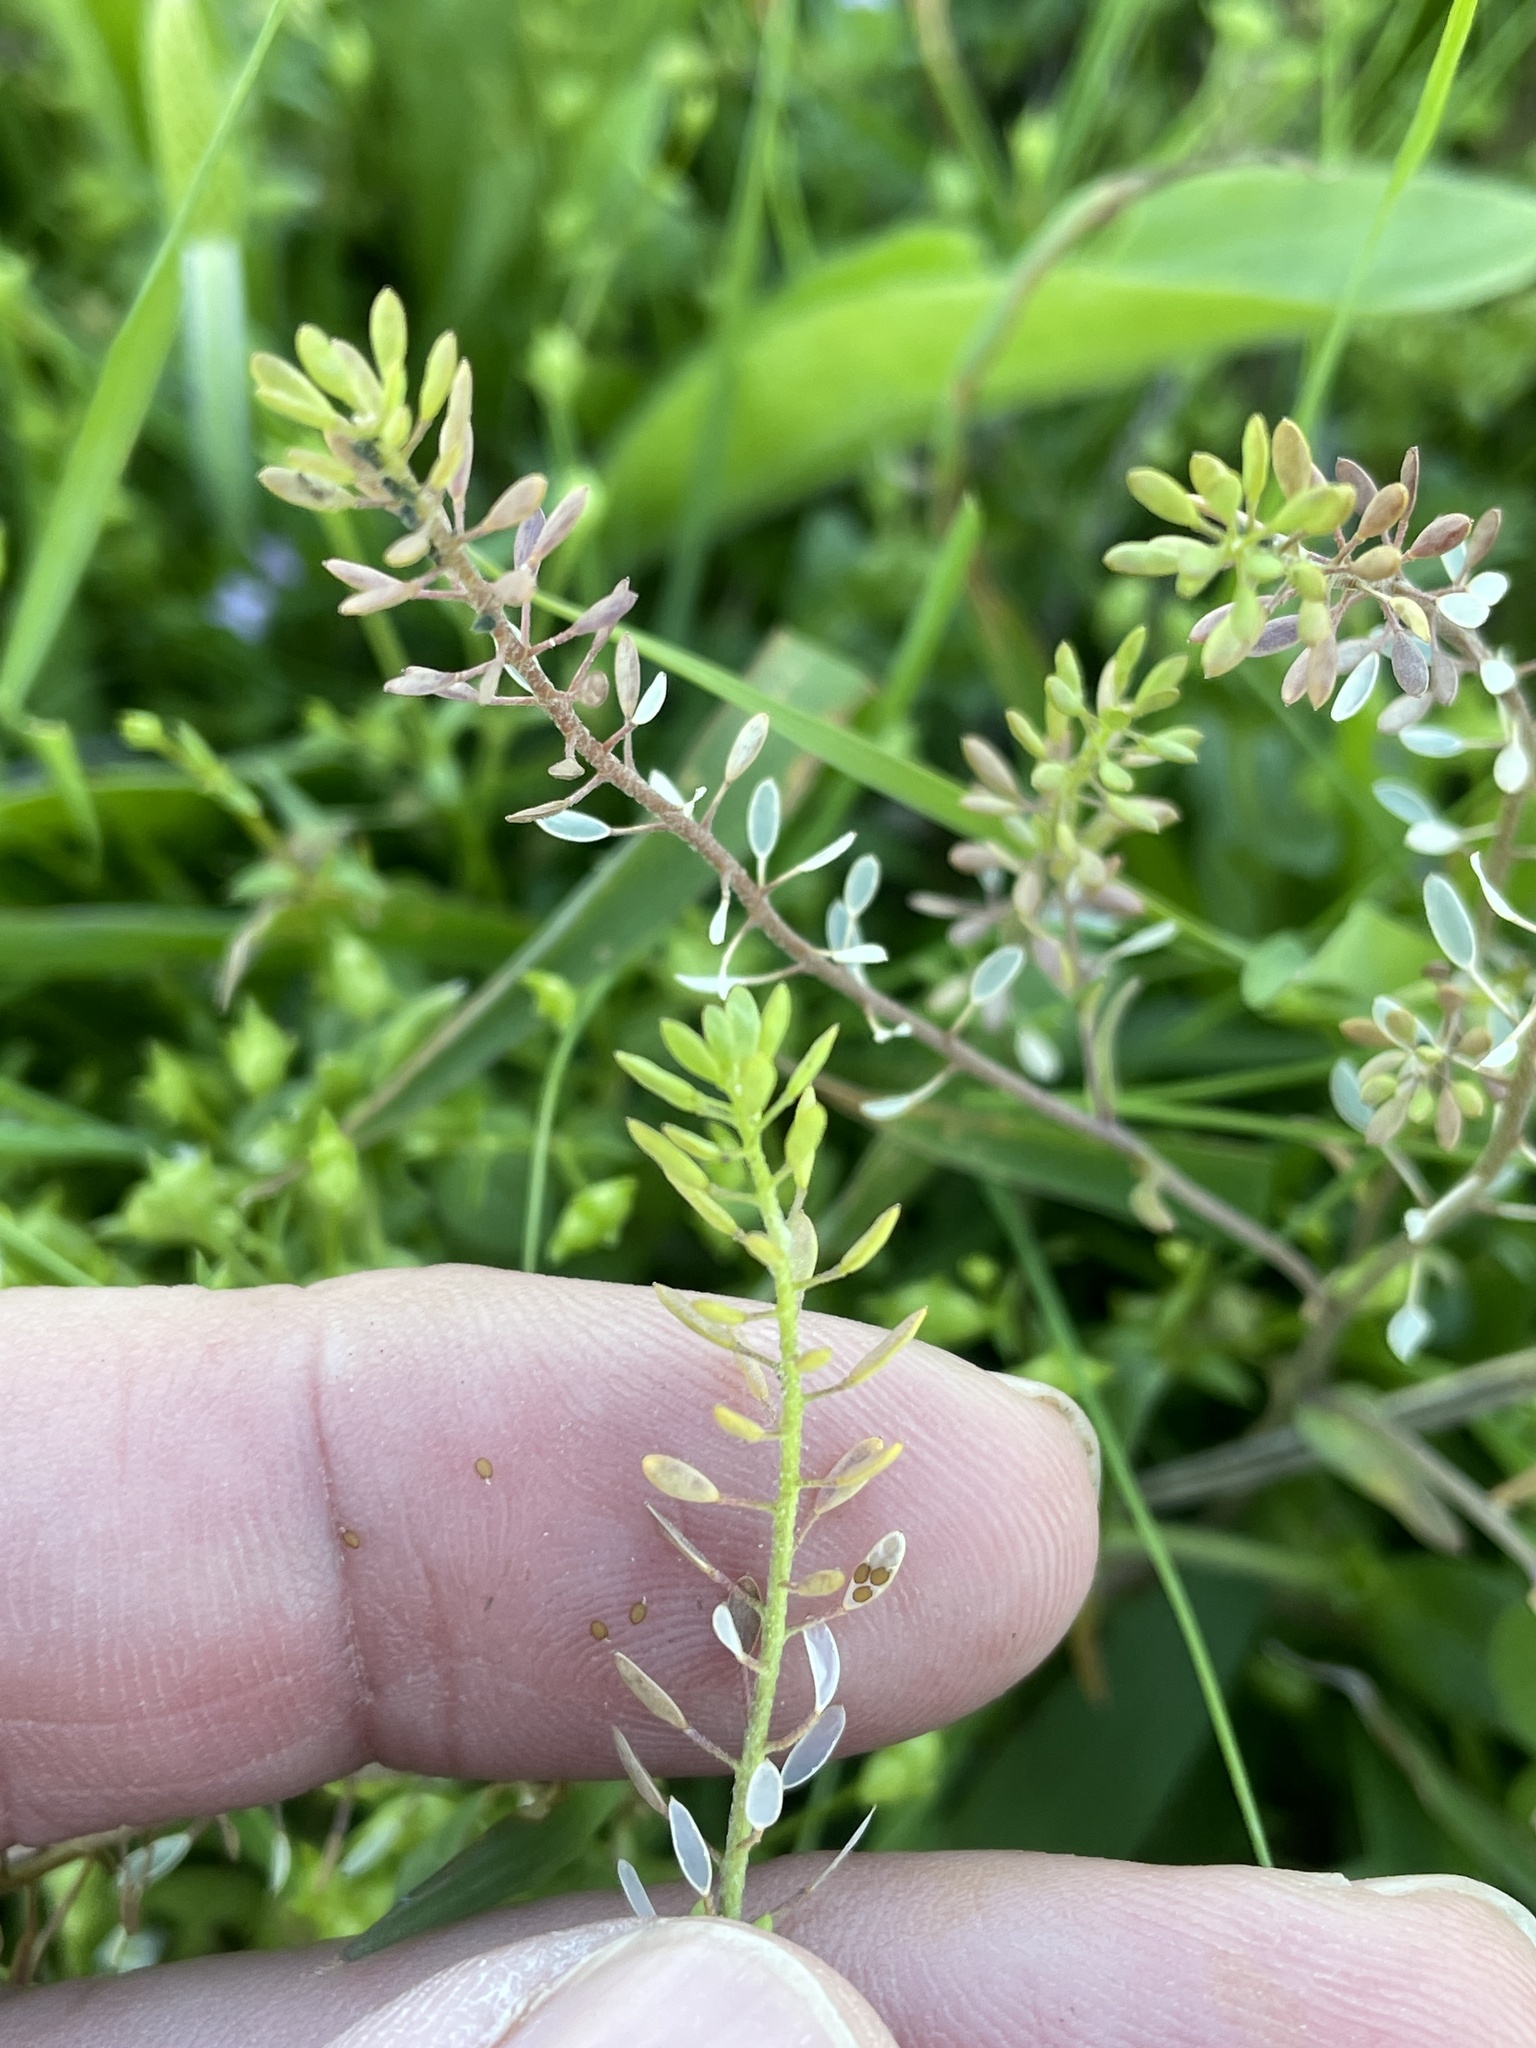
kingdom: Plantae
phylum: Tracheophyta
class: Magnoliopsida
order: Brassicales
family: Brassicaceae
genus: Abdra
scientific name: Abdra brachycarpa
